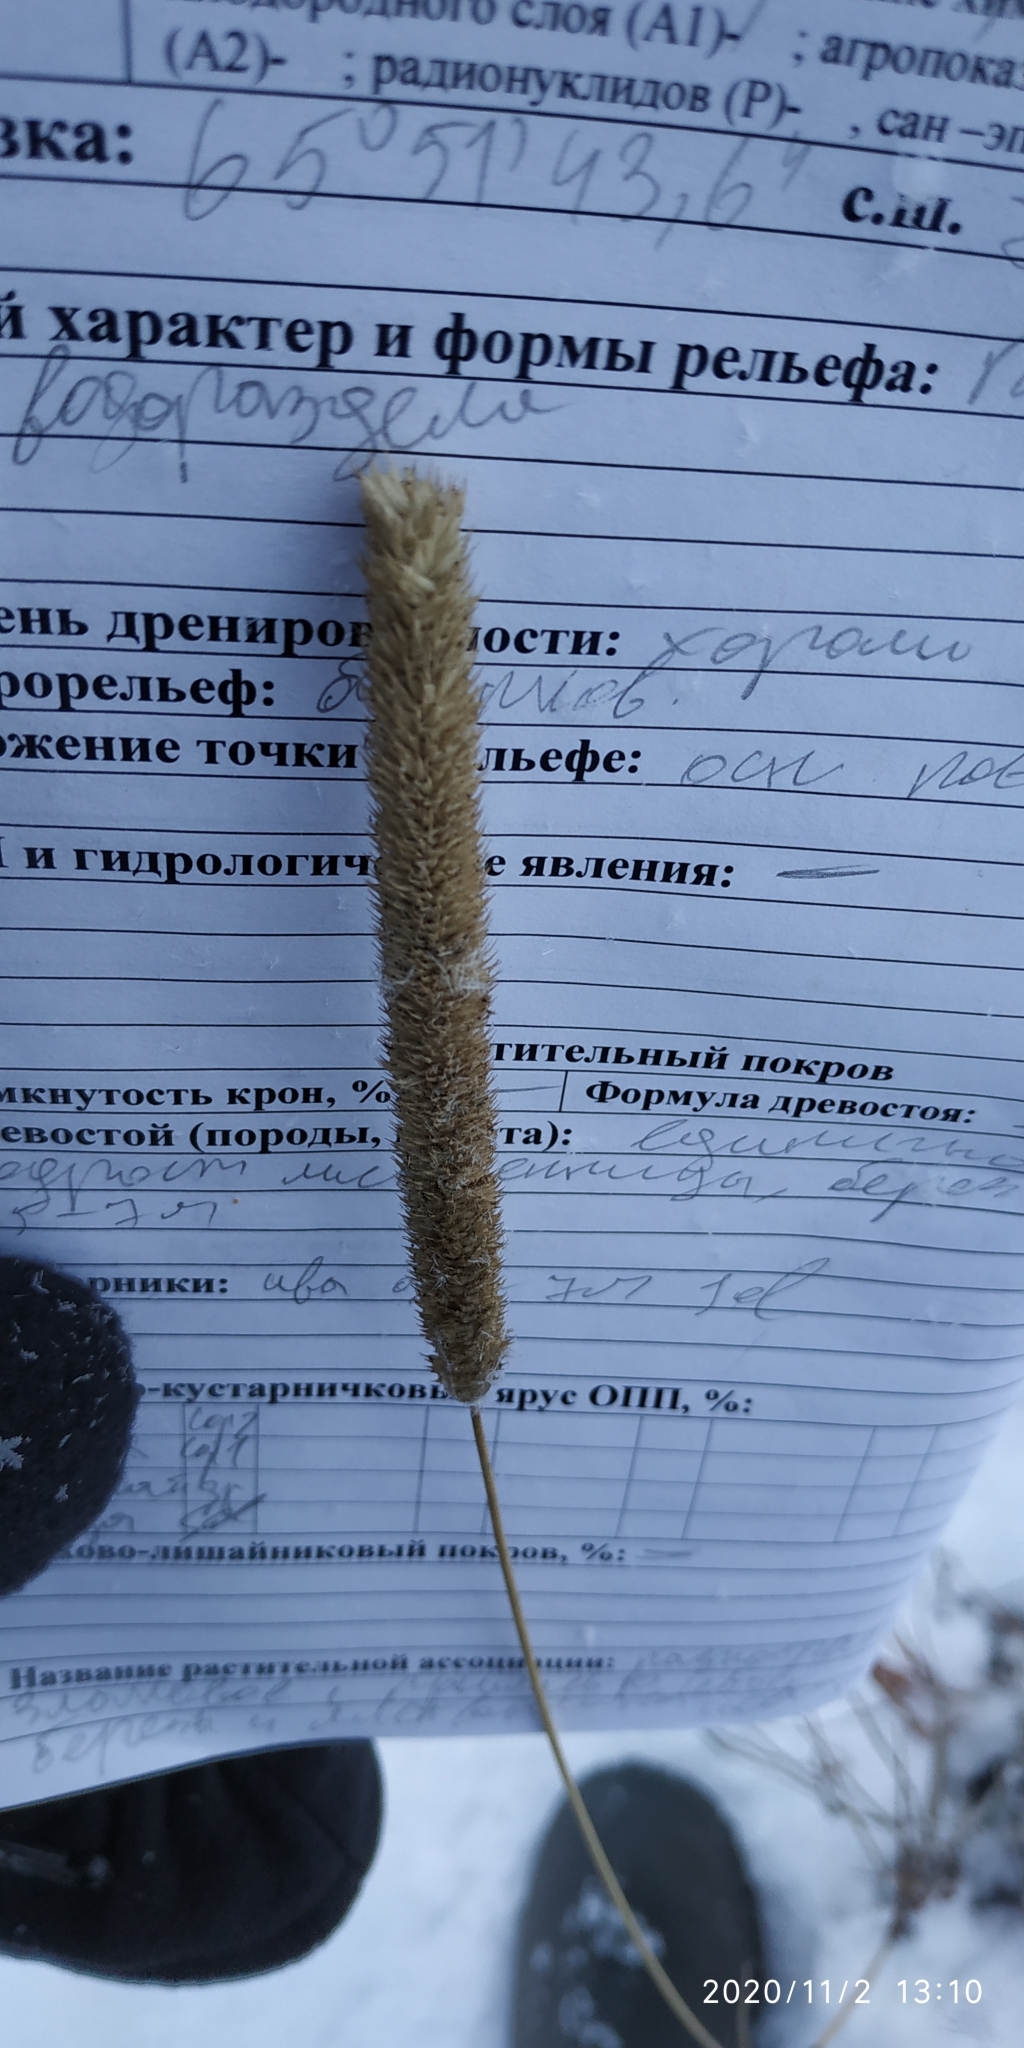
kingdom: Plantae
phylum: Tracheophyta
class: Liliopsida
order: Poales
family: Poaceae
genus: Phleum
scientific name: Phleum pratense
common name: Timothy grass
